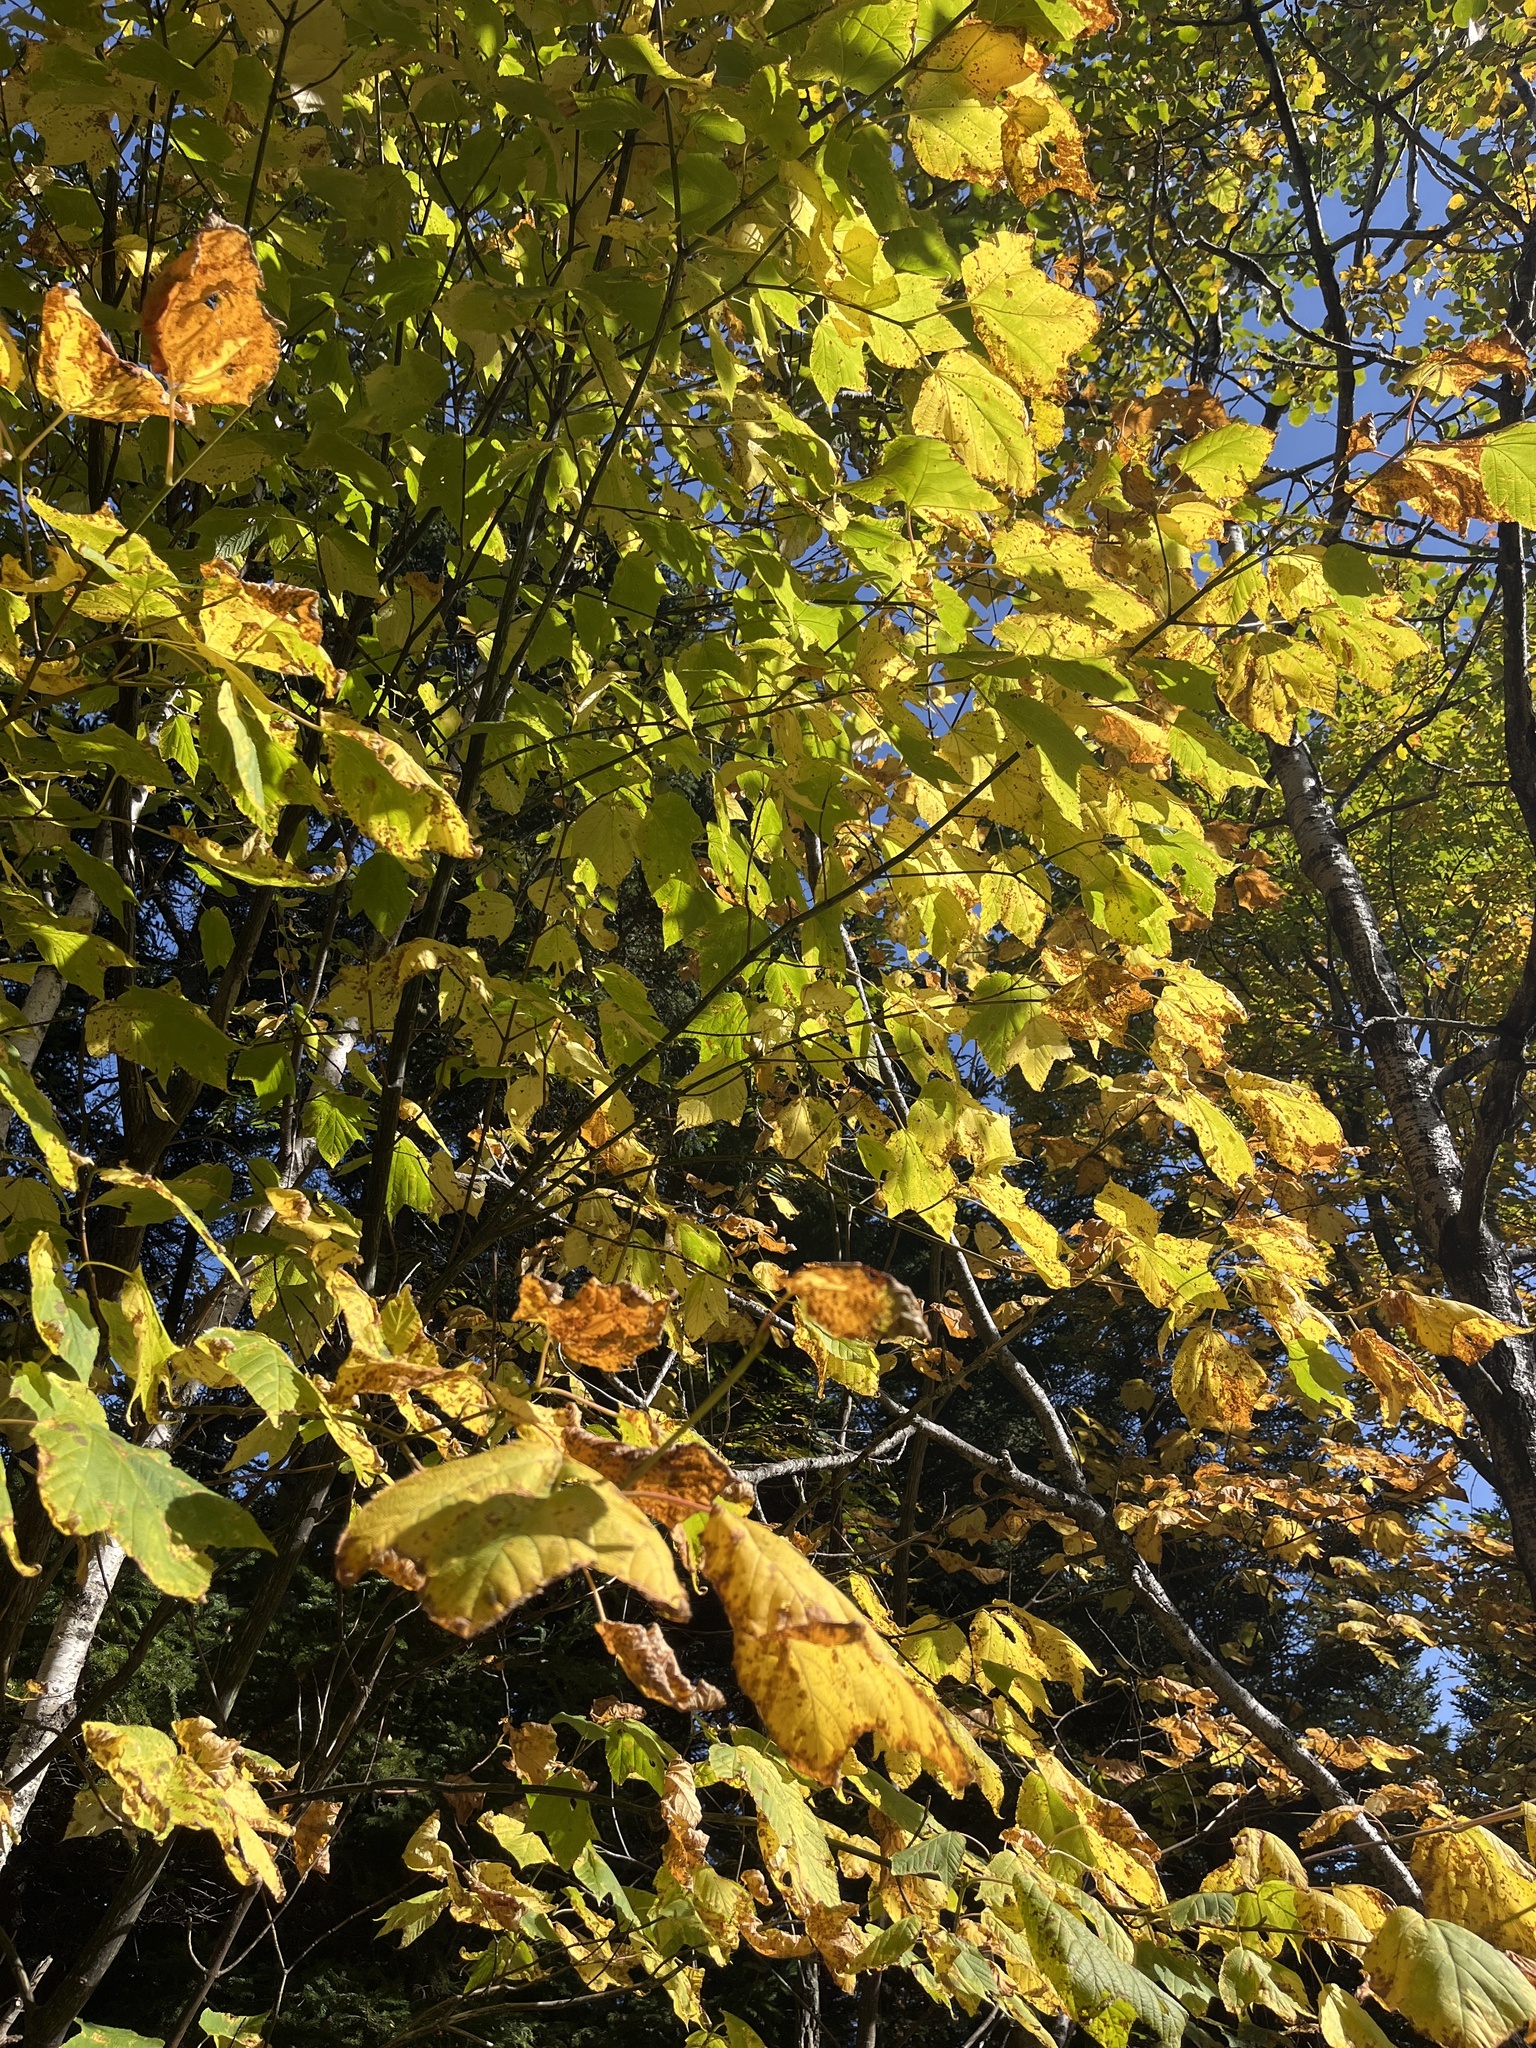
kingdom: Plantae
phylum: Tracheophyta
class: Magnoliopsida
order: Sapindales
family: Sapindaceae
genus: Acer
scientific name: Acer pensylvanicum
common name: Moosewood
